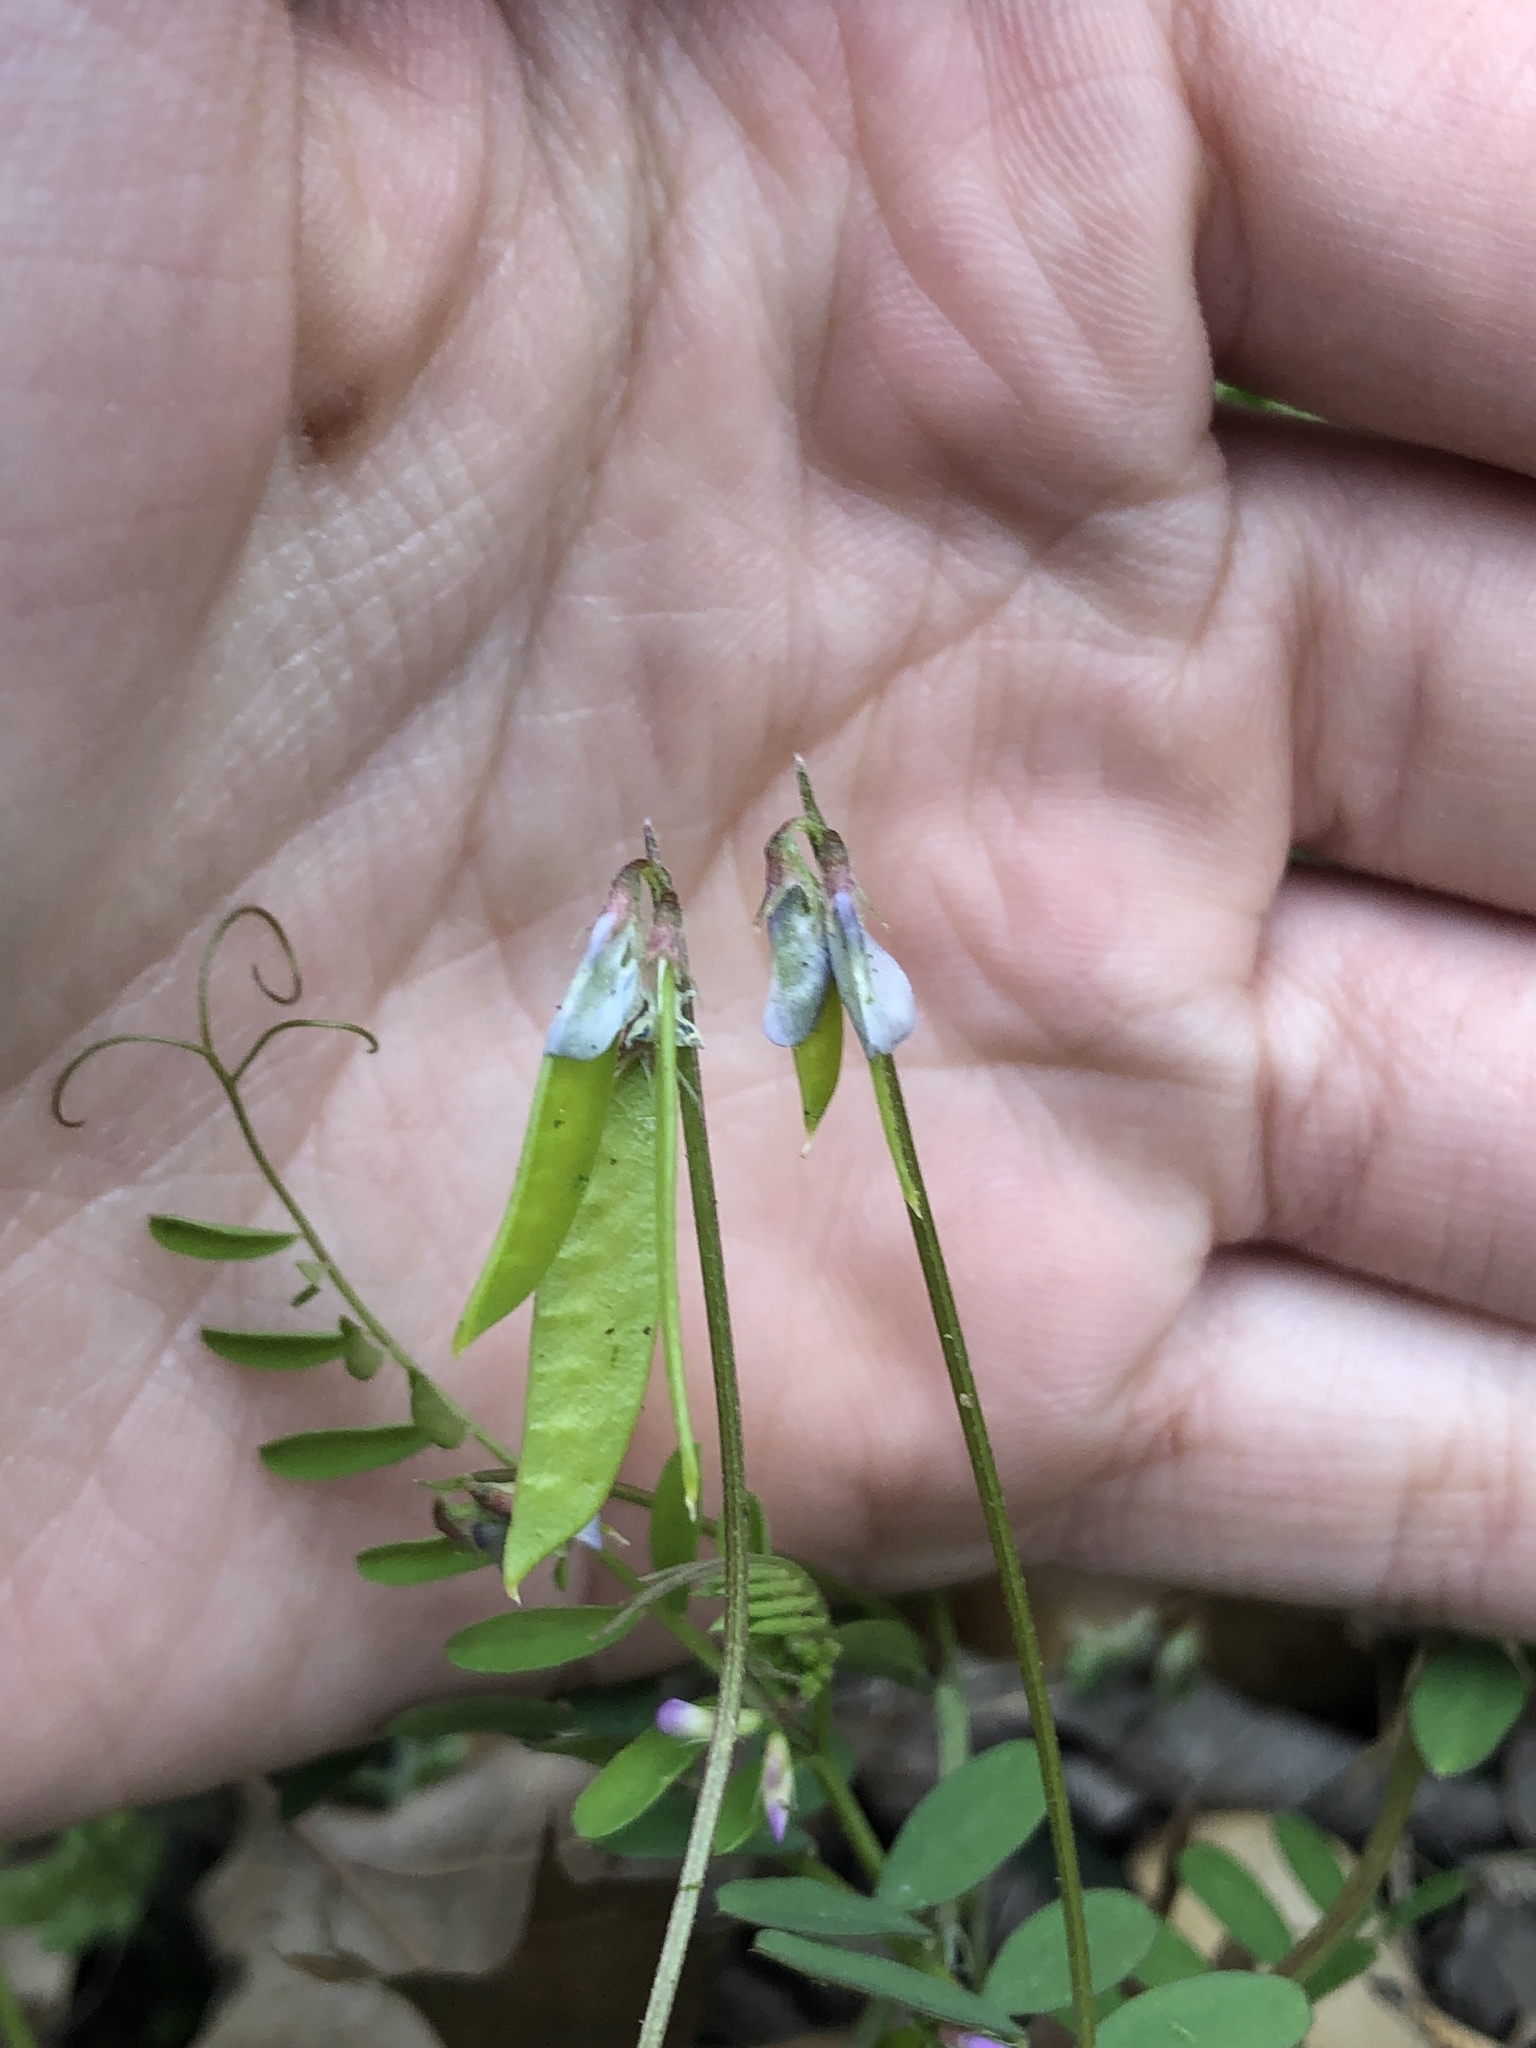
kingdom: Plantae
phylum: Tracheophyta
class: Magnoliopsida
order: Fabales
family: Fabaceae
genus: Vicia
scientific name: Vicia ludoviciana
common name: Louisiana vetch
